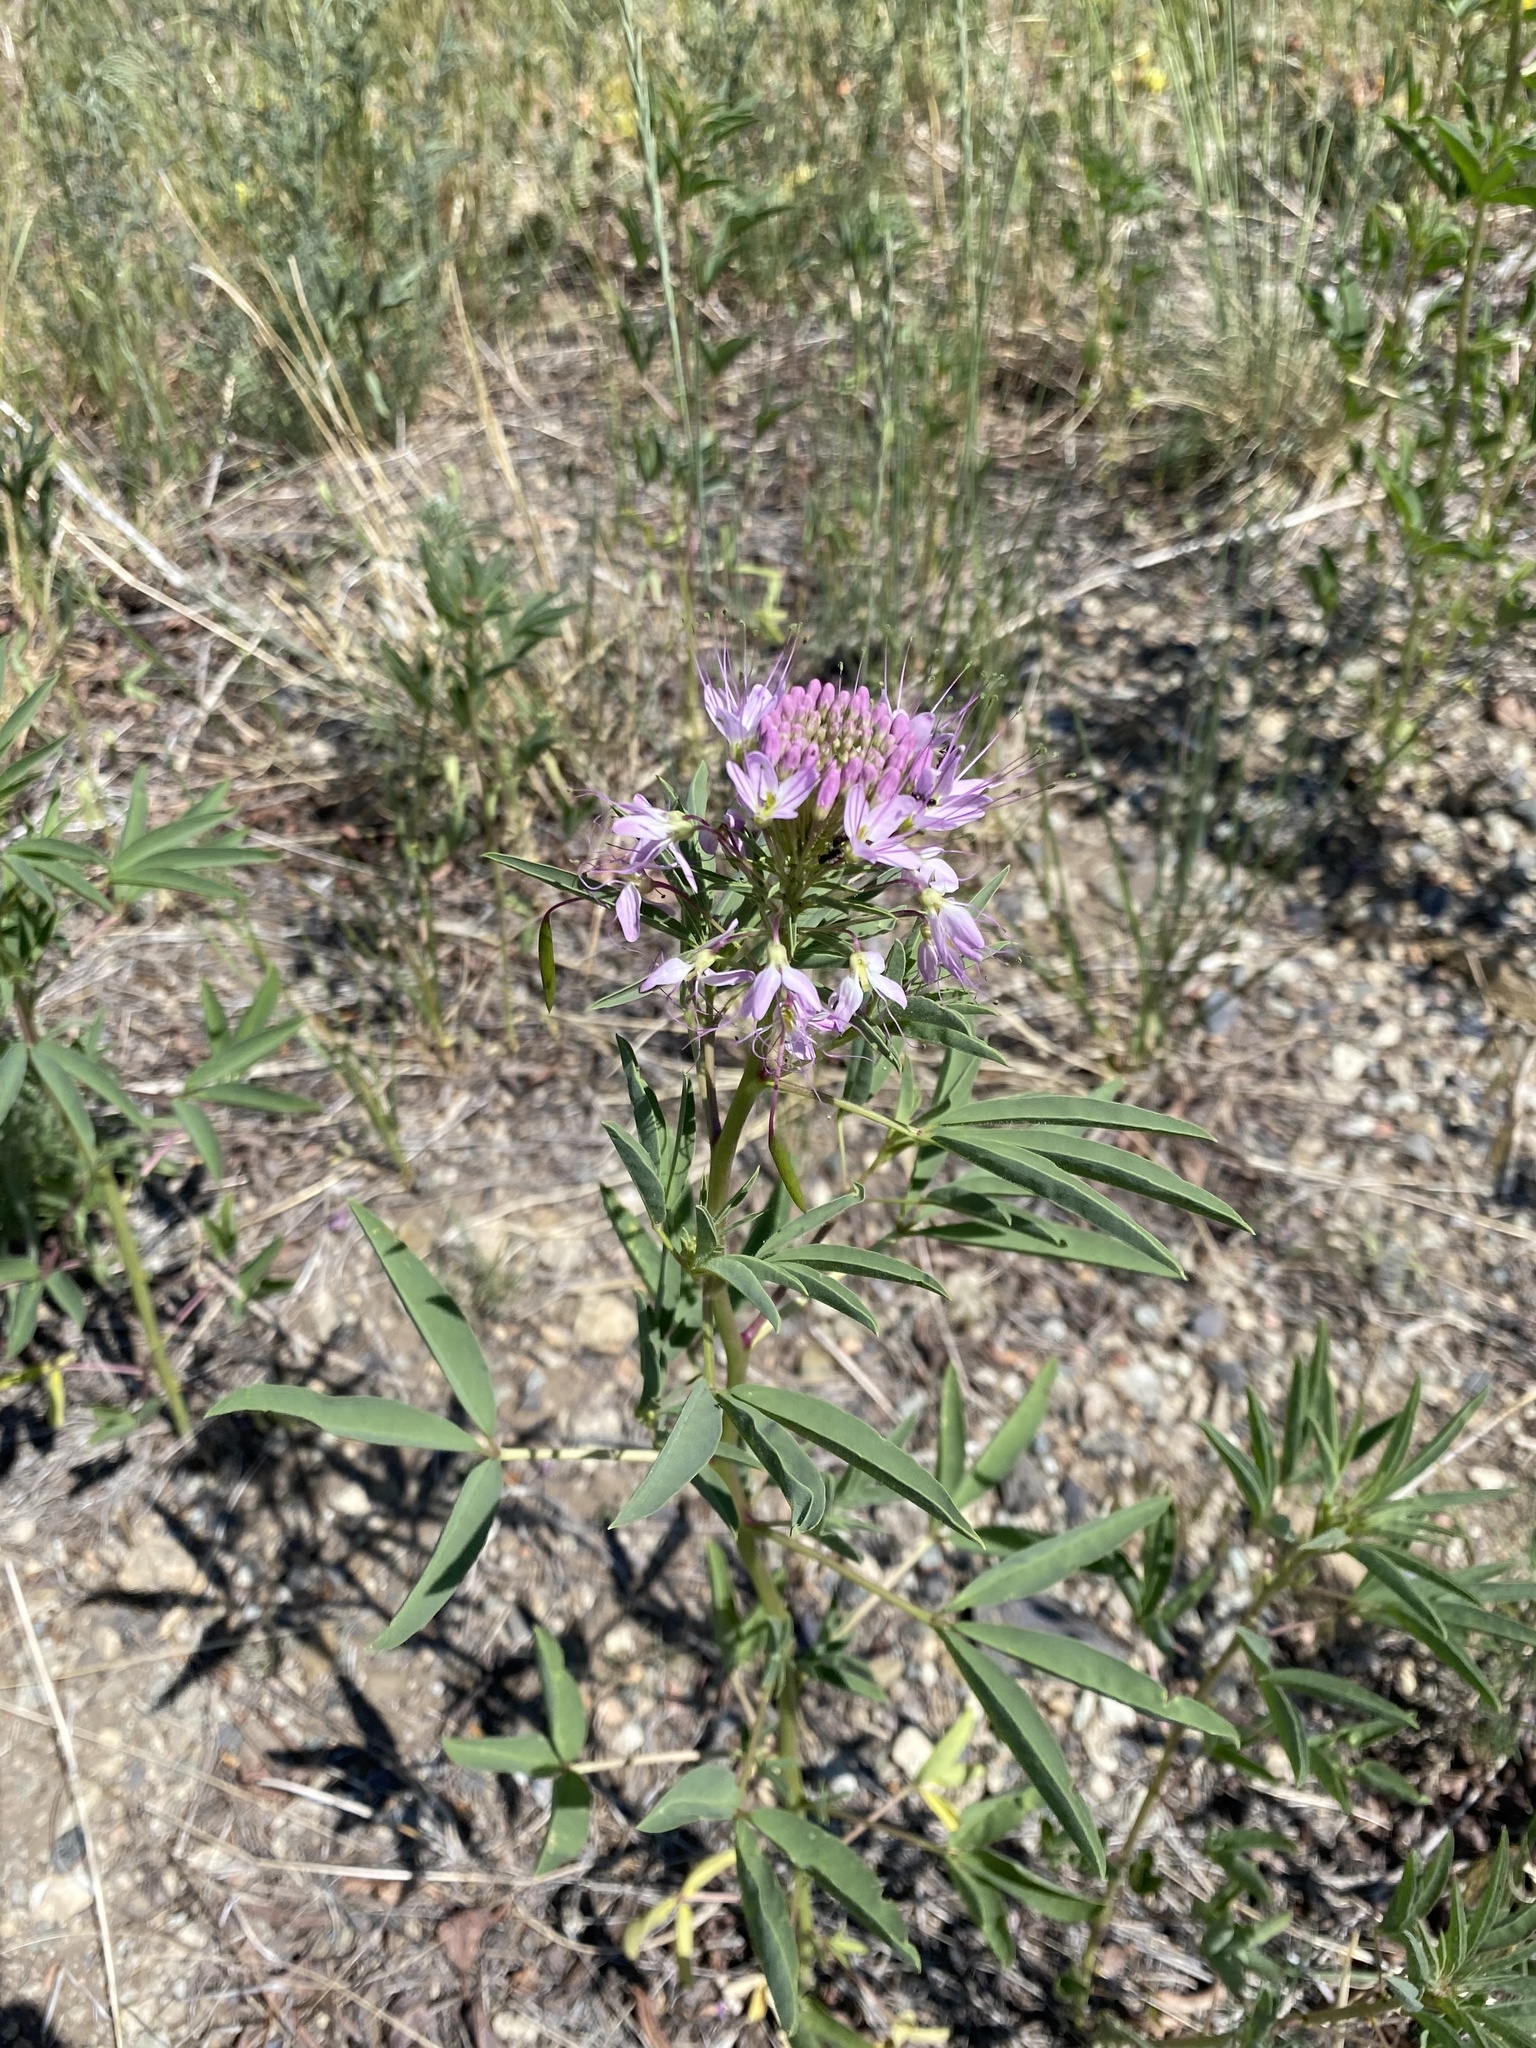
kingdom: Plantae
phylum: Tracheophyta
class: Magnoliopsida
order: Brassicales
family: Cleomaceae
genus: Cleomella
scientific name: Cleomella serrulata
